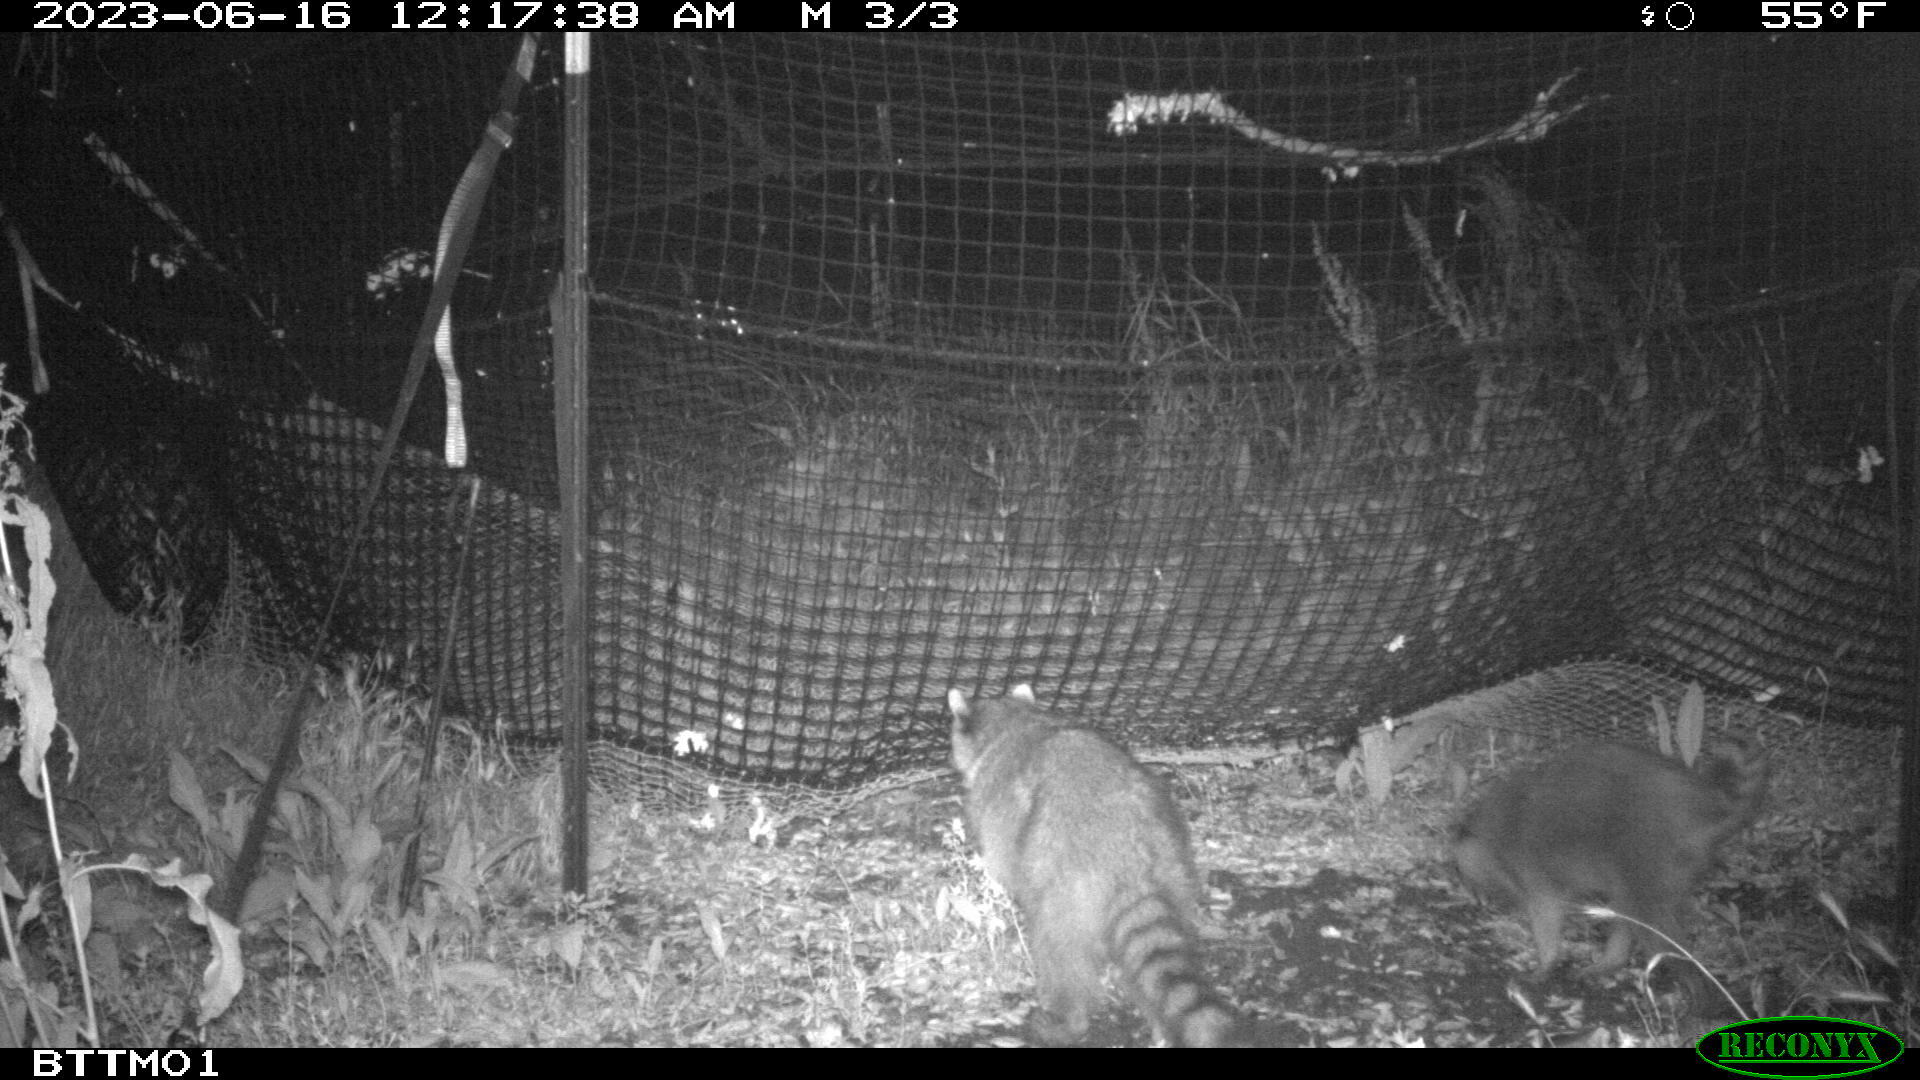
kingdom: Animalia
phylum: Chordata
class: Mammalia
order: Carnivora
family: Procyonidae
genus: Procyon
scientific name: Procyon lotor
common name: Raccoon
